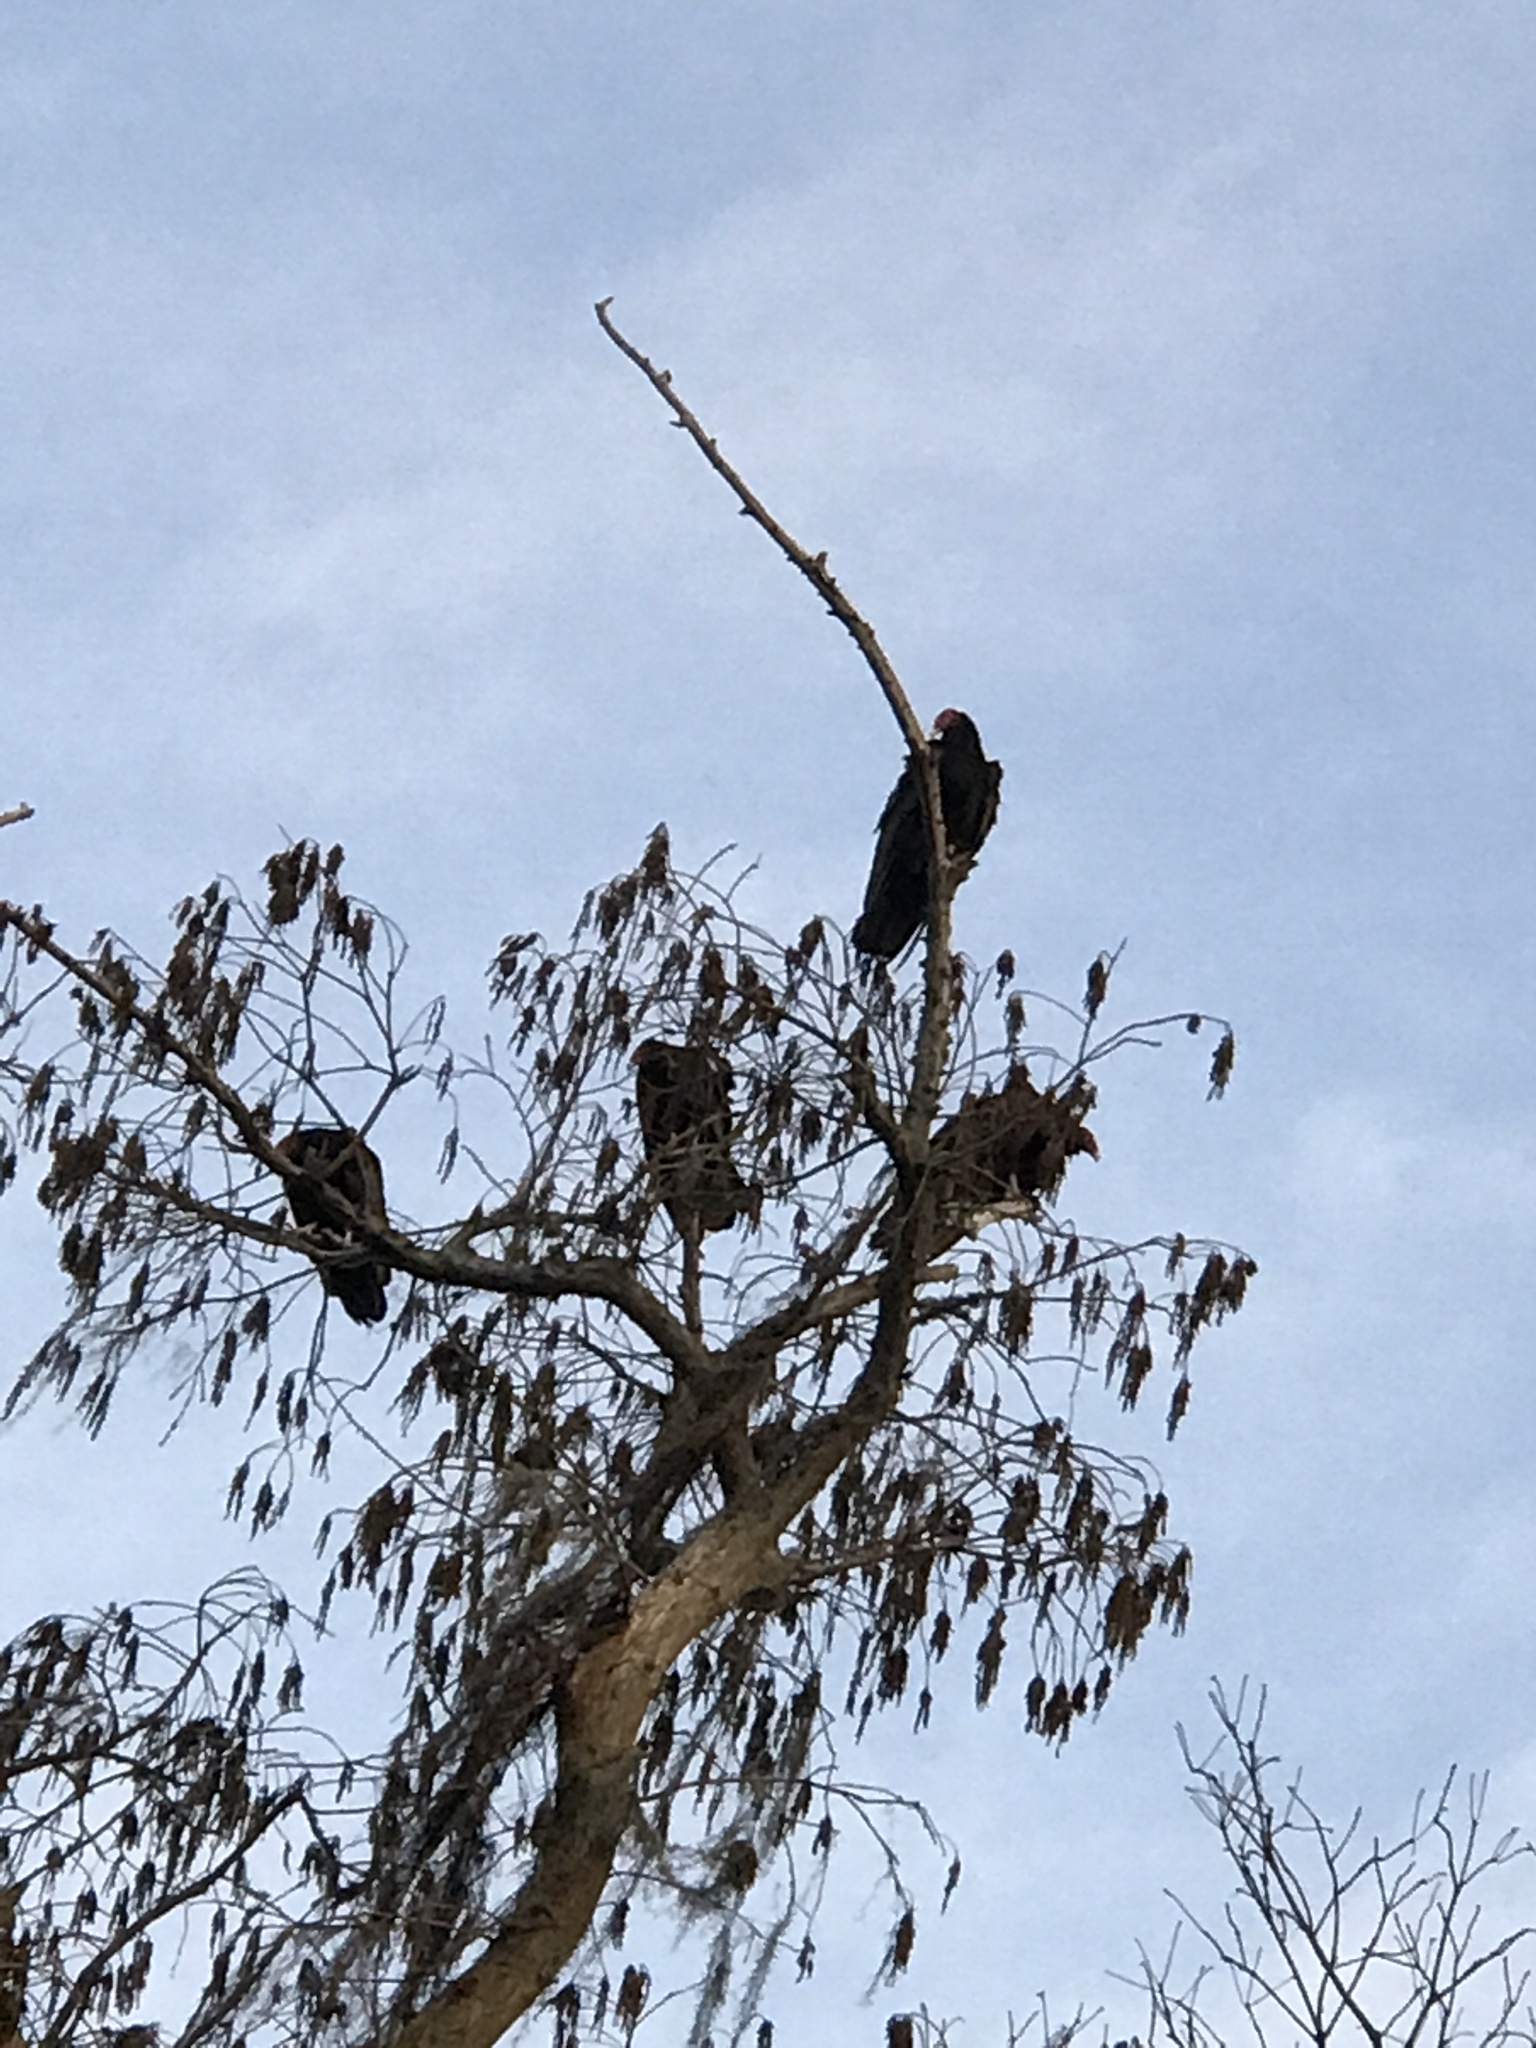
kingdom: Animalia
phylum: Chordata
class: Aves
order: Accipitriformes
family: Cathartidae
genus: Cathartes
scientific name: Cathartes aura
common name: Turkey vulture
